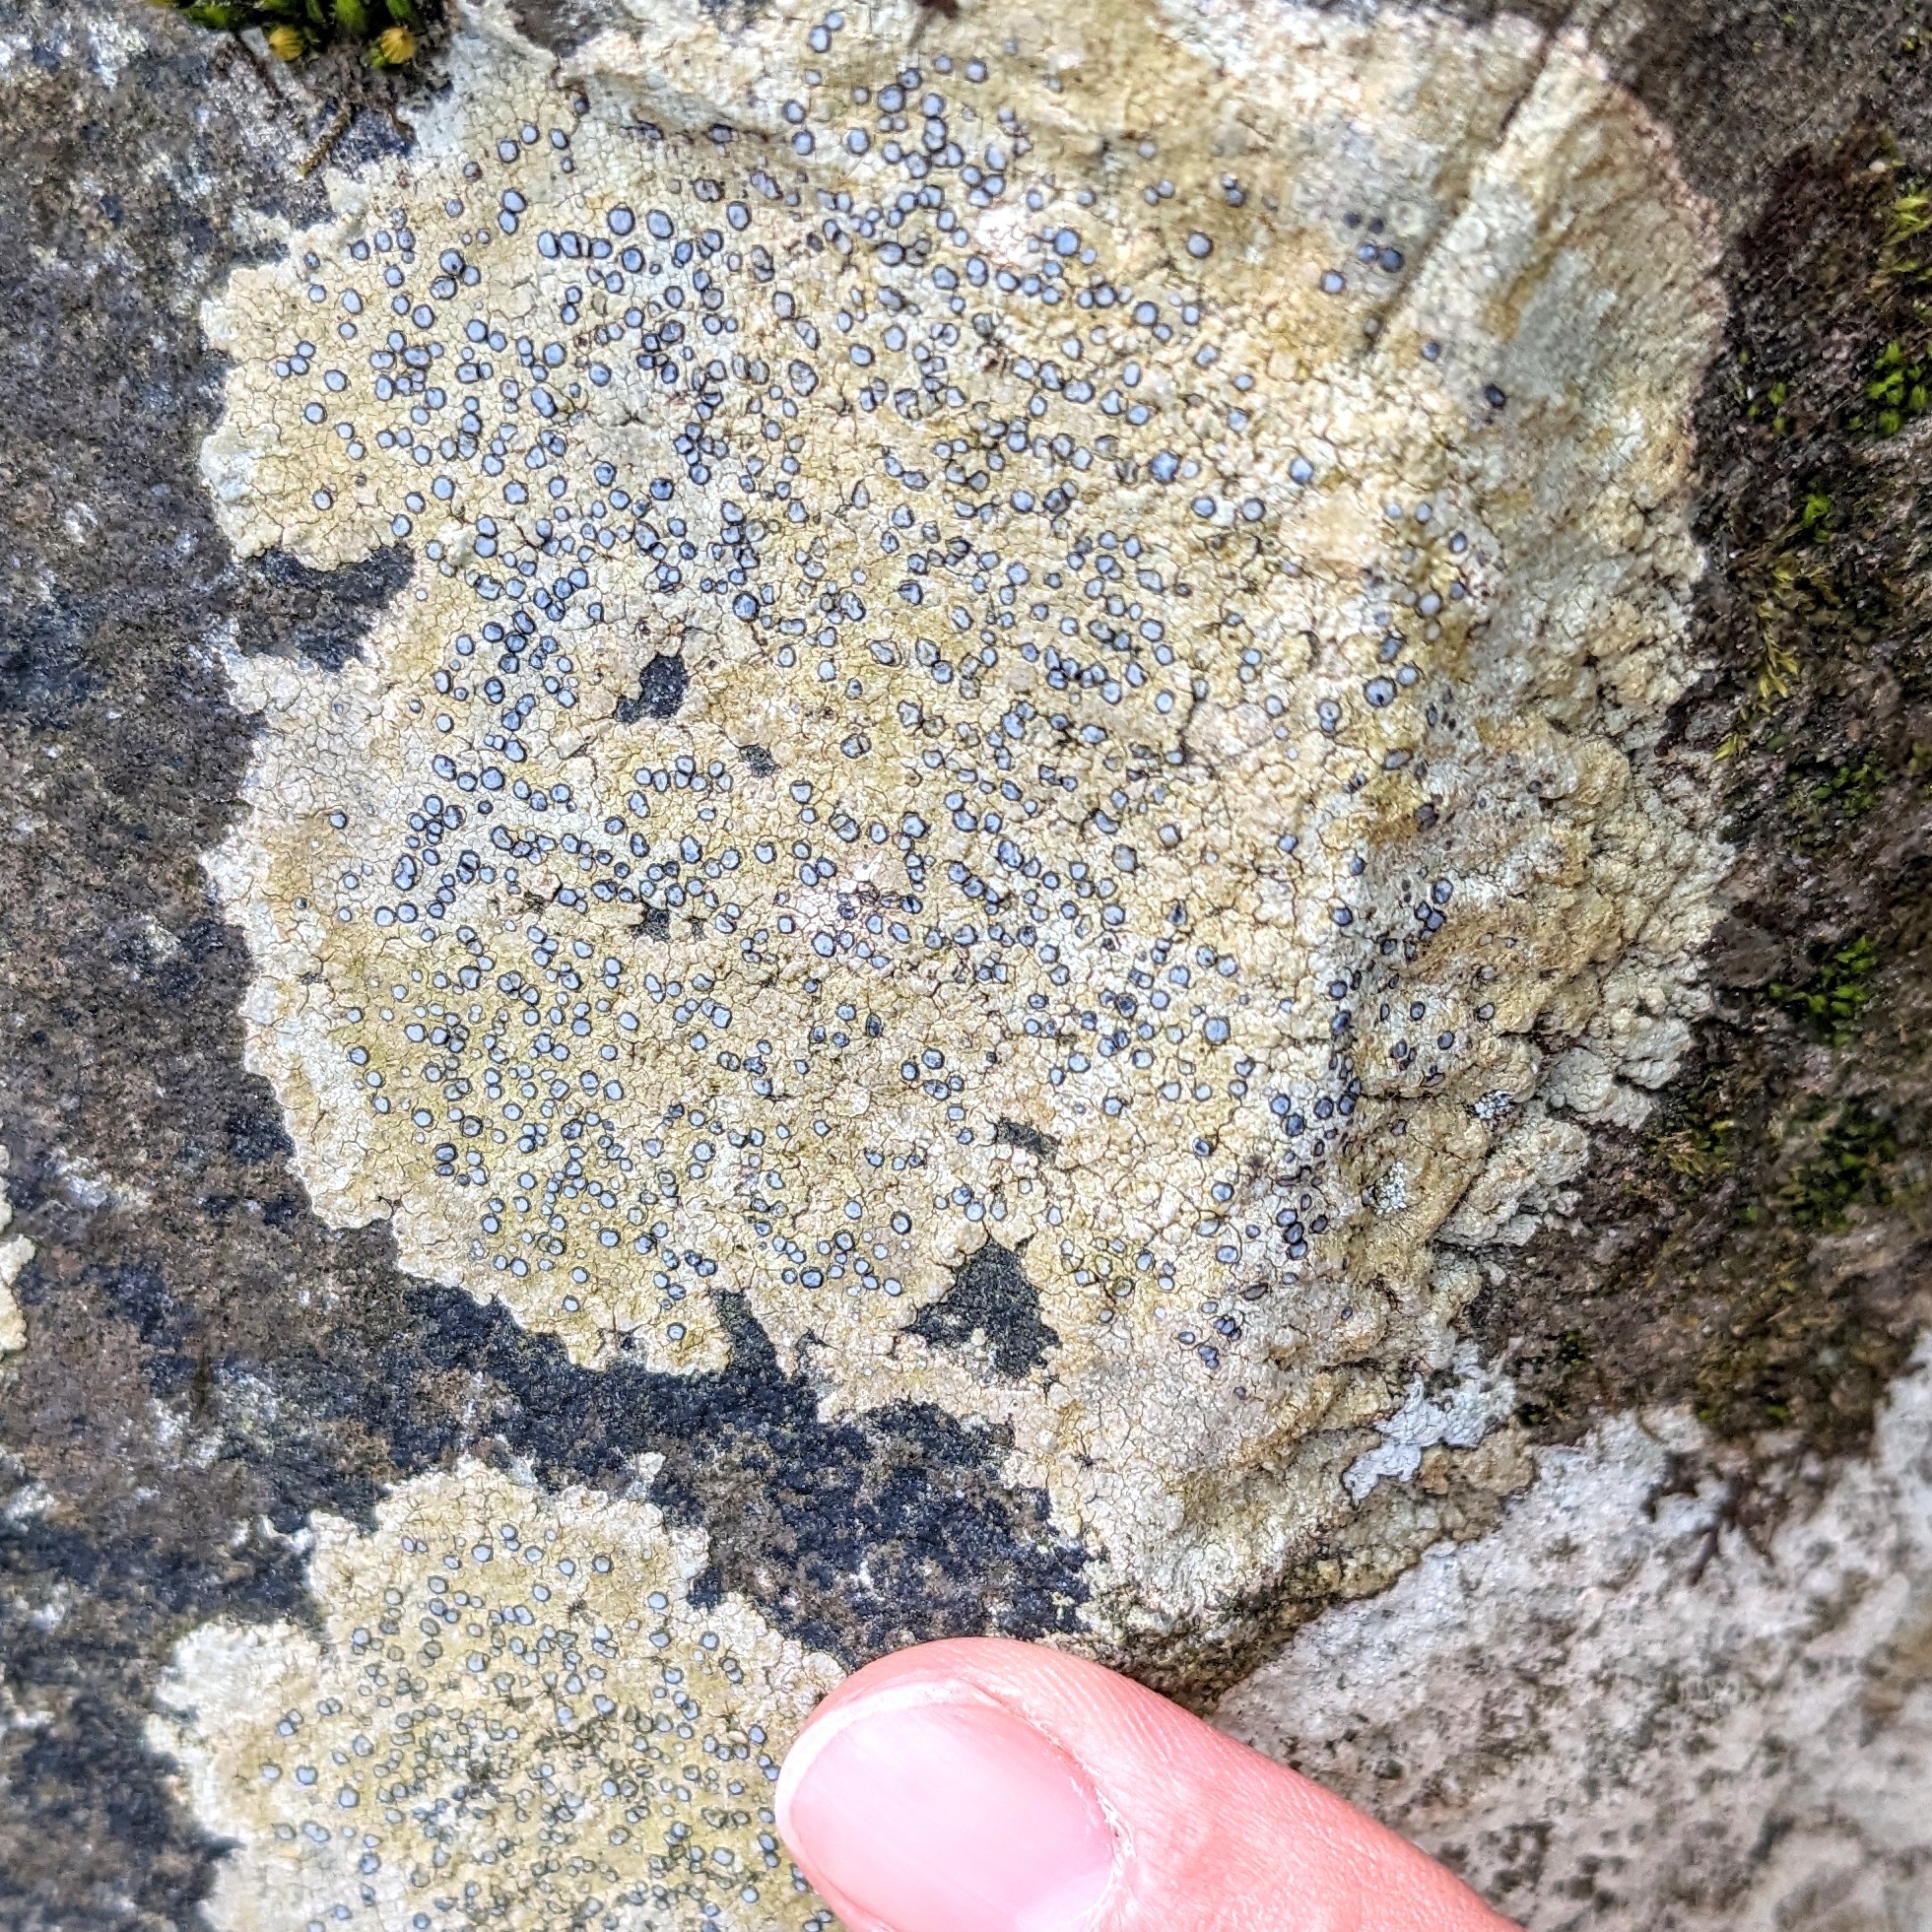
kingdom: Fungi
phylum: Ascomycota
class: Lecanoromycetes
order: Lecideales
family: Lecideaceae
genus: Porpidia
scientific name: Porpidia albocaerulescens
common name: Smokey-eyed boulder lichen
